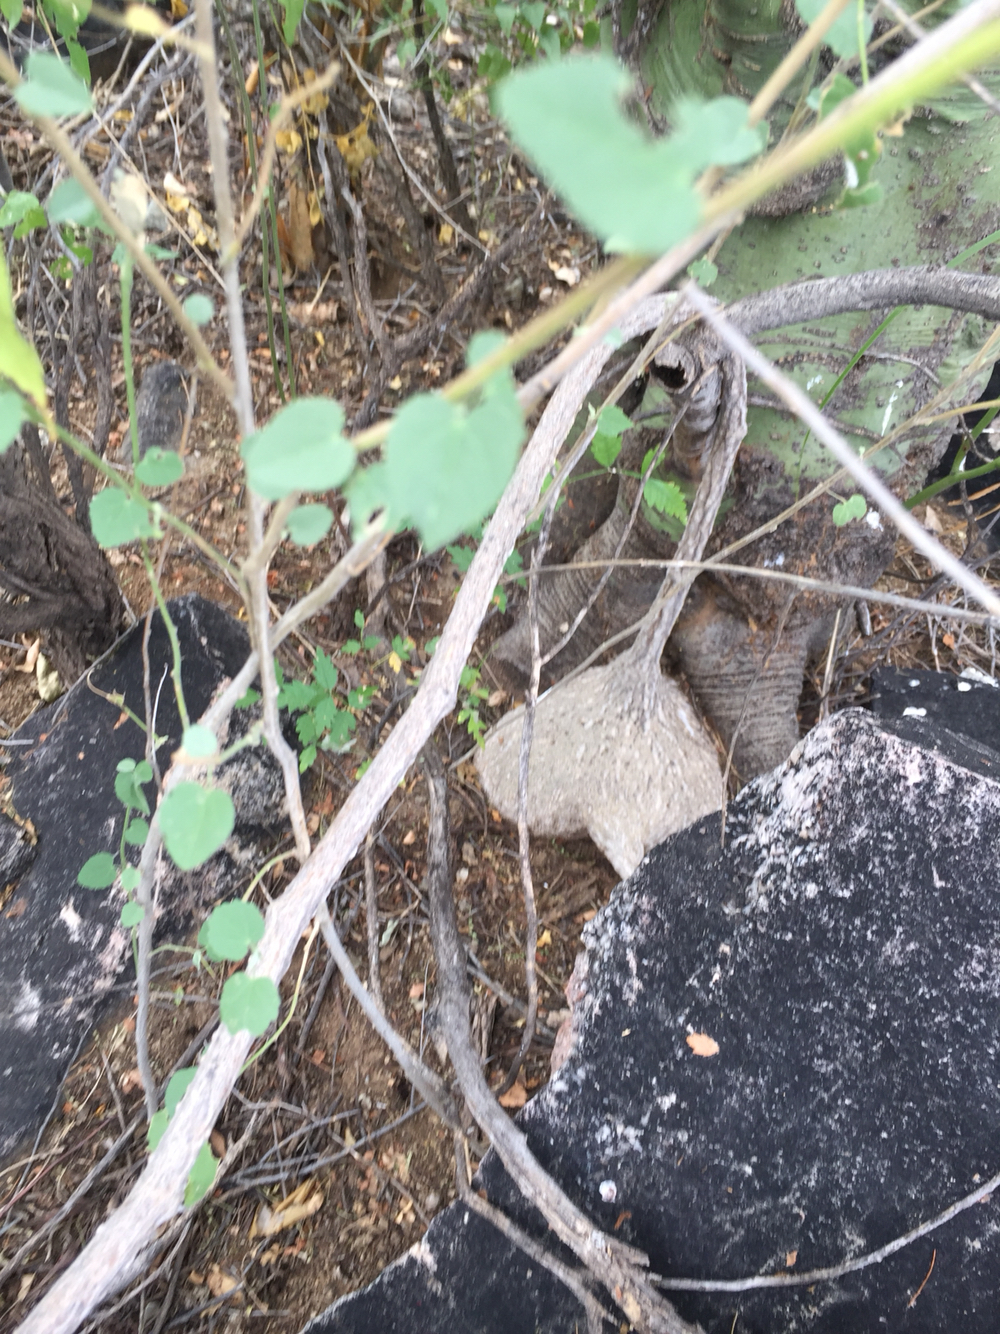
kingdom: Plantae
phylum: Tracheophyta
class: Magnoliopsida
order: Cucurbitales
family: Cucurbitaceae
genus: Ibervillea
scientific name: Ibervillea sonorae
